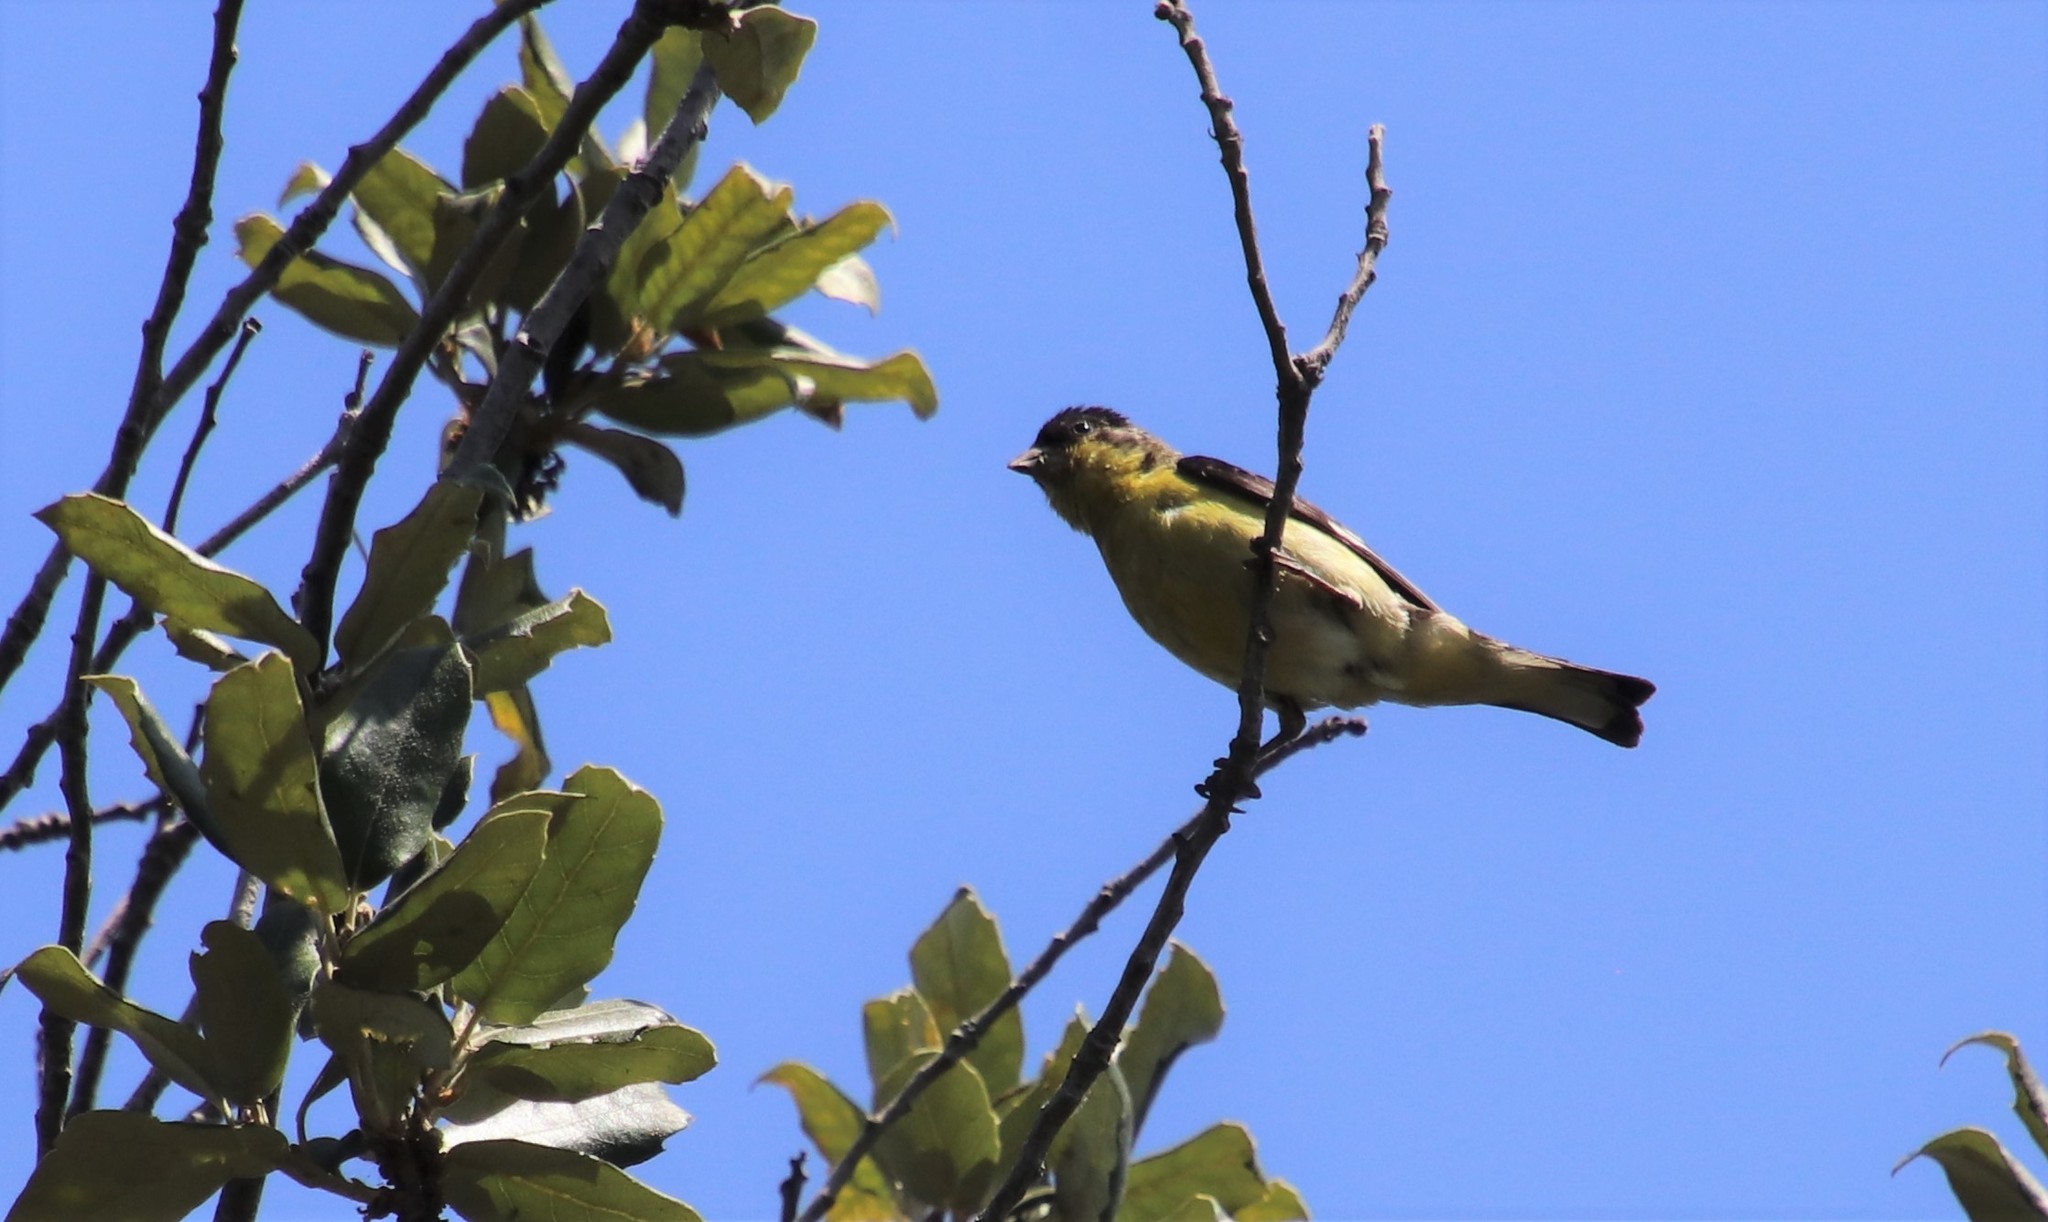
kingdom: Animalia
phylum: Chordata
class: Aves
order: Passeriformes
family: Fringillidae
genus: Spinus
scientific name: Spinus psaltria
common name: Lesser goldfinch
